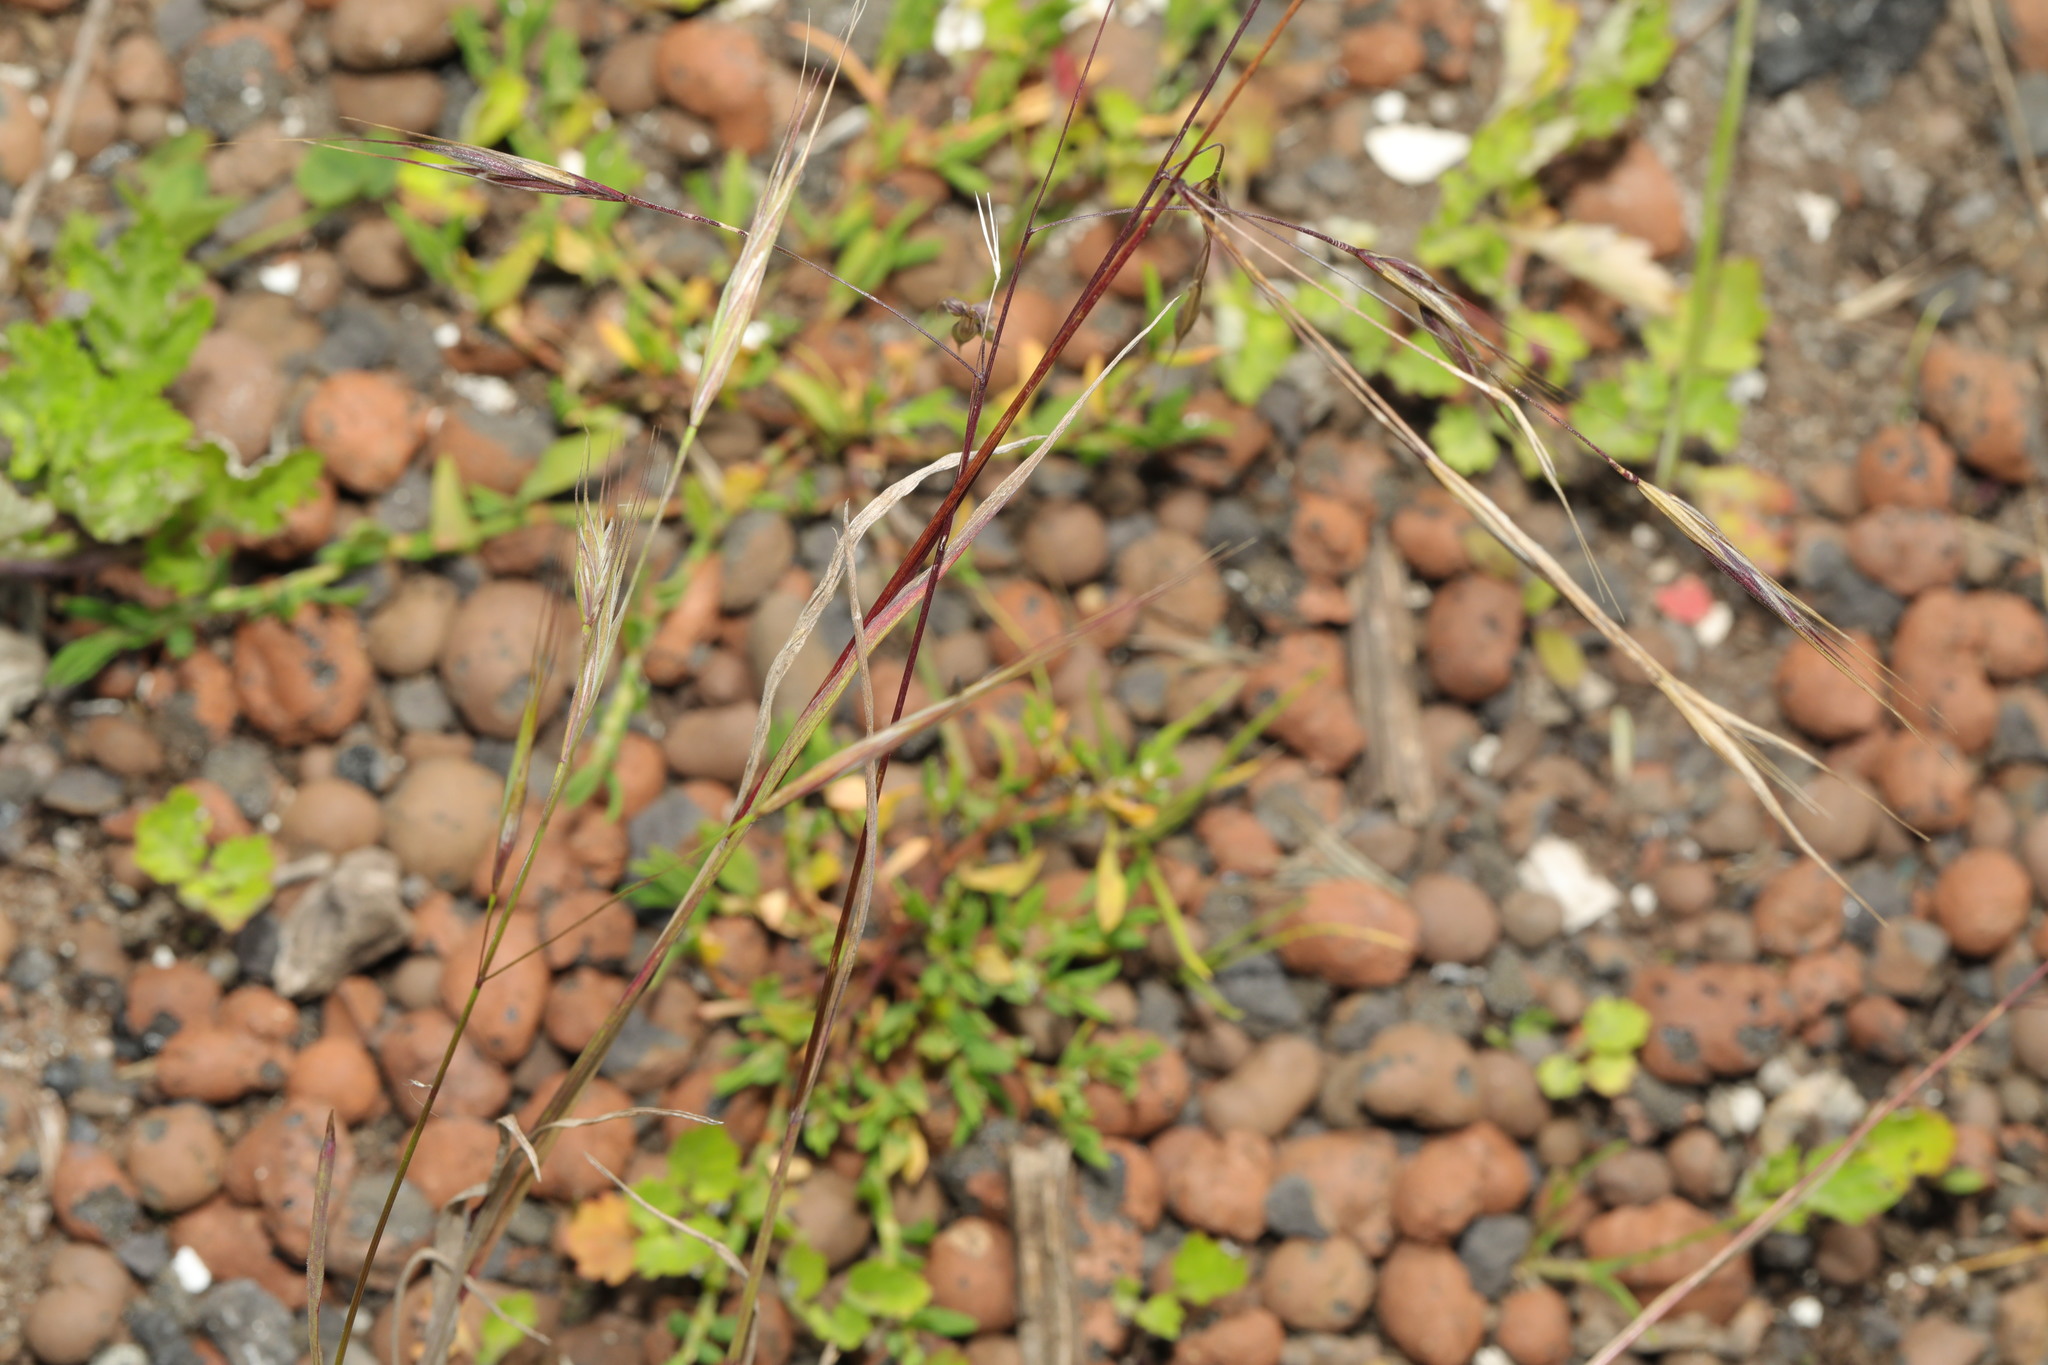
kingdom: Plantae
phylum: Tracheophyta
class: Liliopsida
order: Poales
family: Poaceae
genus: Bromus
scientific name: Bromus sterilis
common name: Poverty brome
